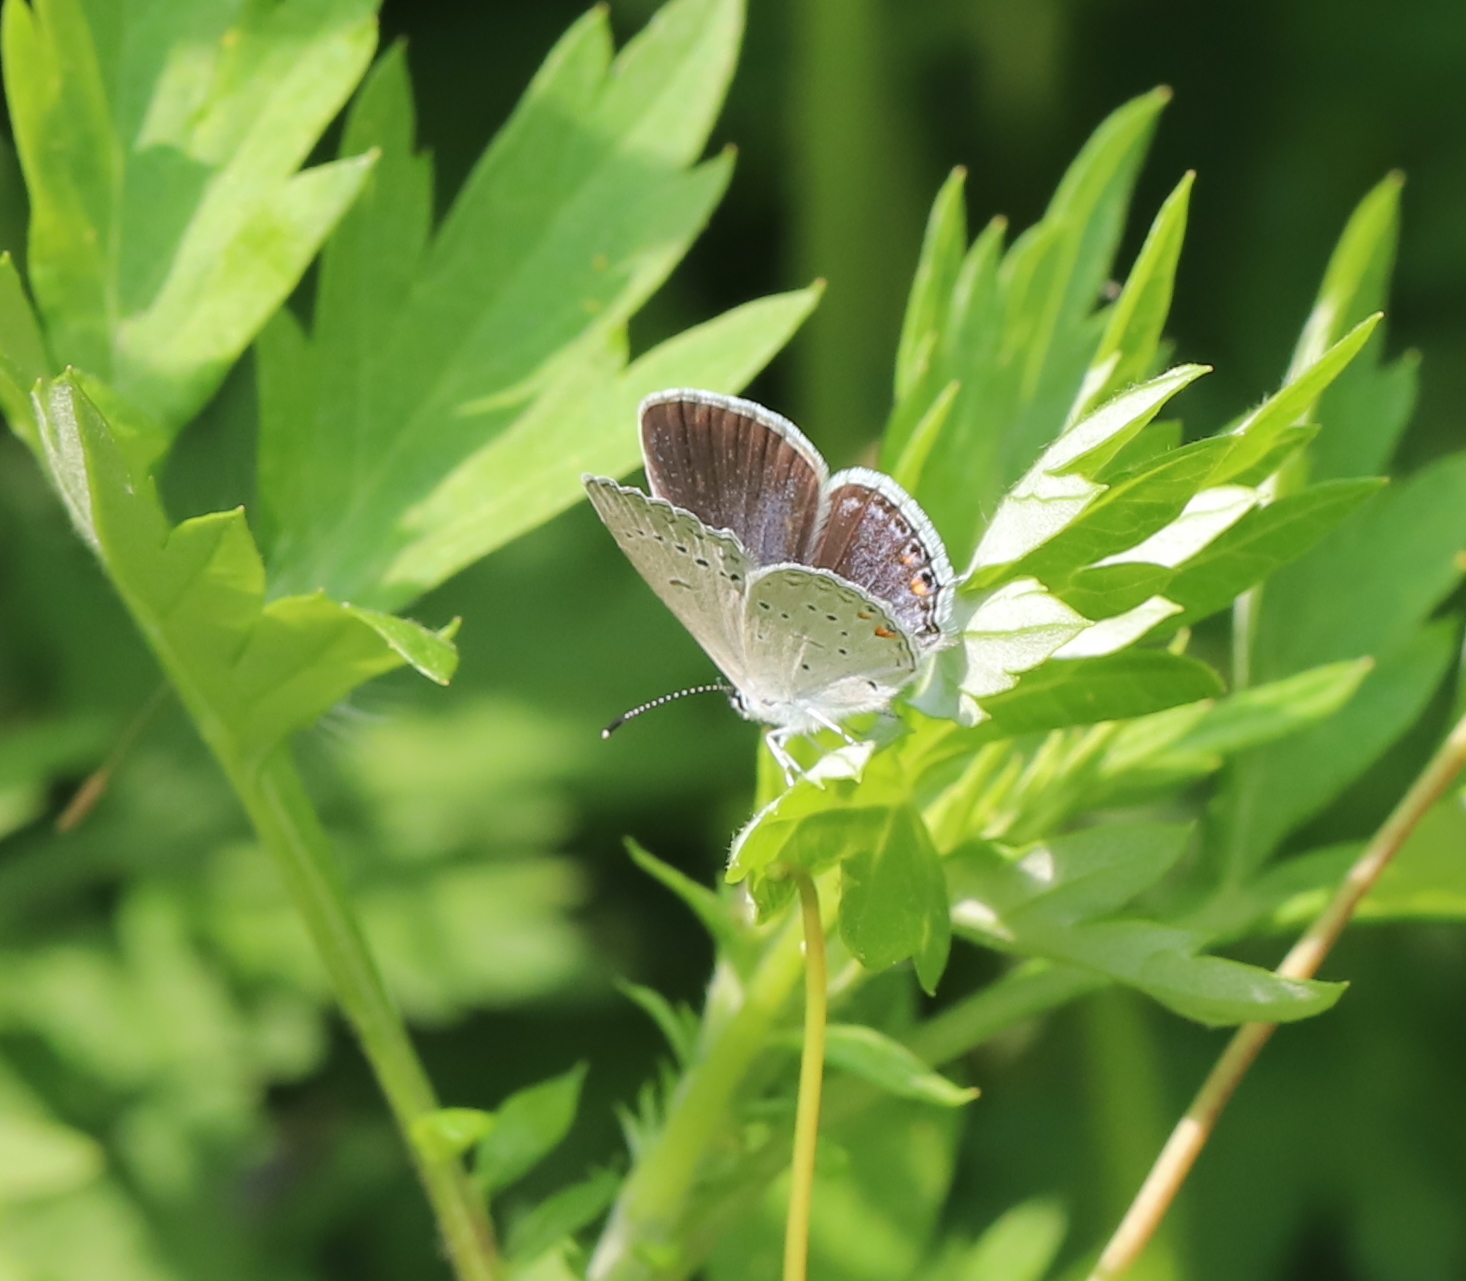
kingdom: Animalia
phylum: Arthropoda
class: Insecta
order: Lepidoptera
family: Lycaenidae
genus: Elkalyce
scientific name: Elkalyce comyntas
